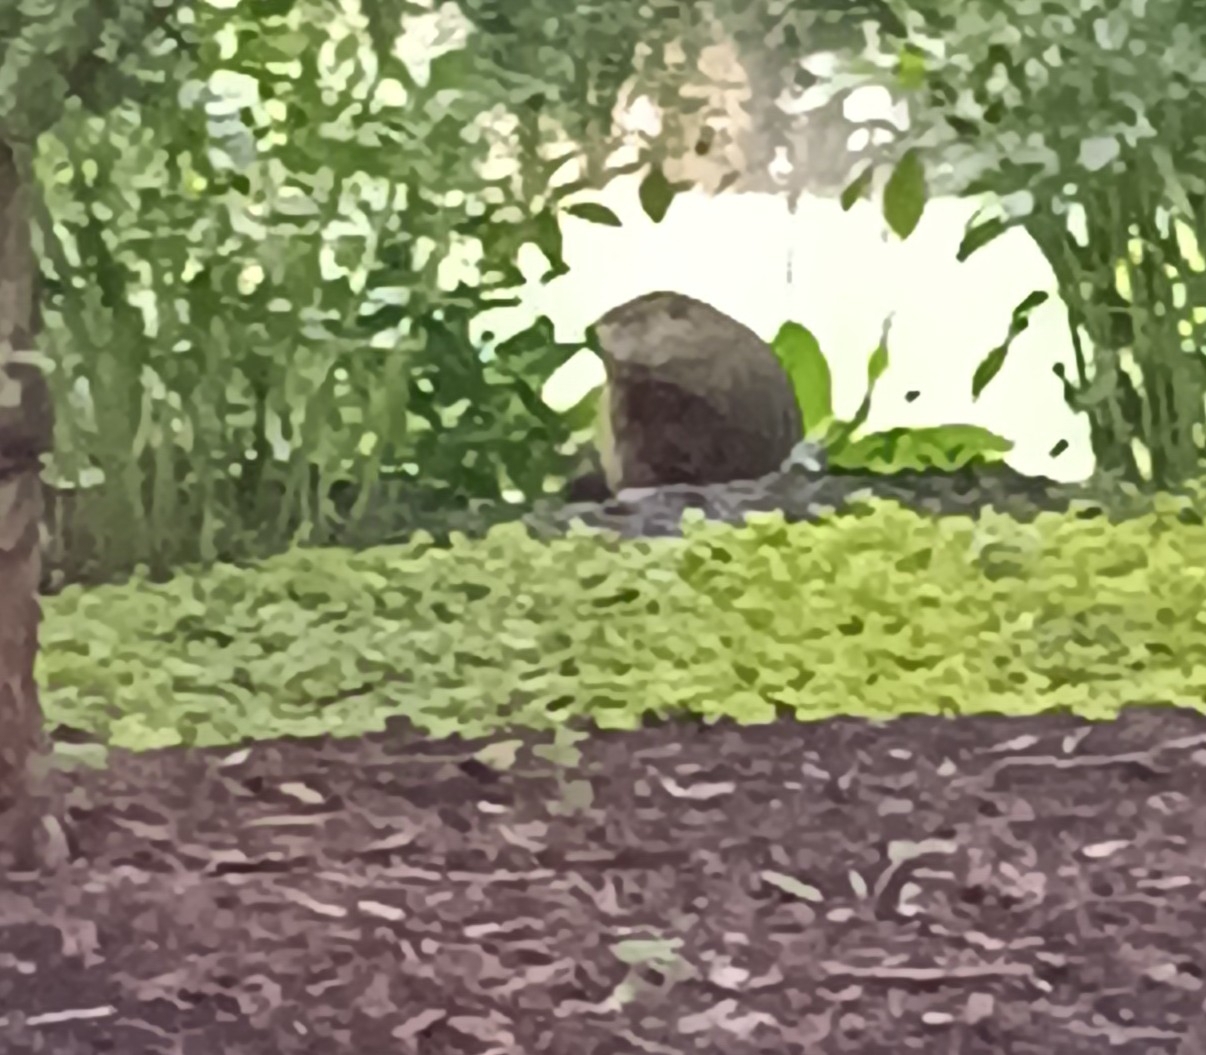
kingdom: Animalia
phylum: Chordata
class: Mammalia
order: Rodentia
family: Sciuridae
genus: Marmota
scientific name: Marmota monax
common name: Groundhog
